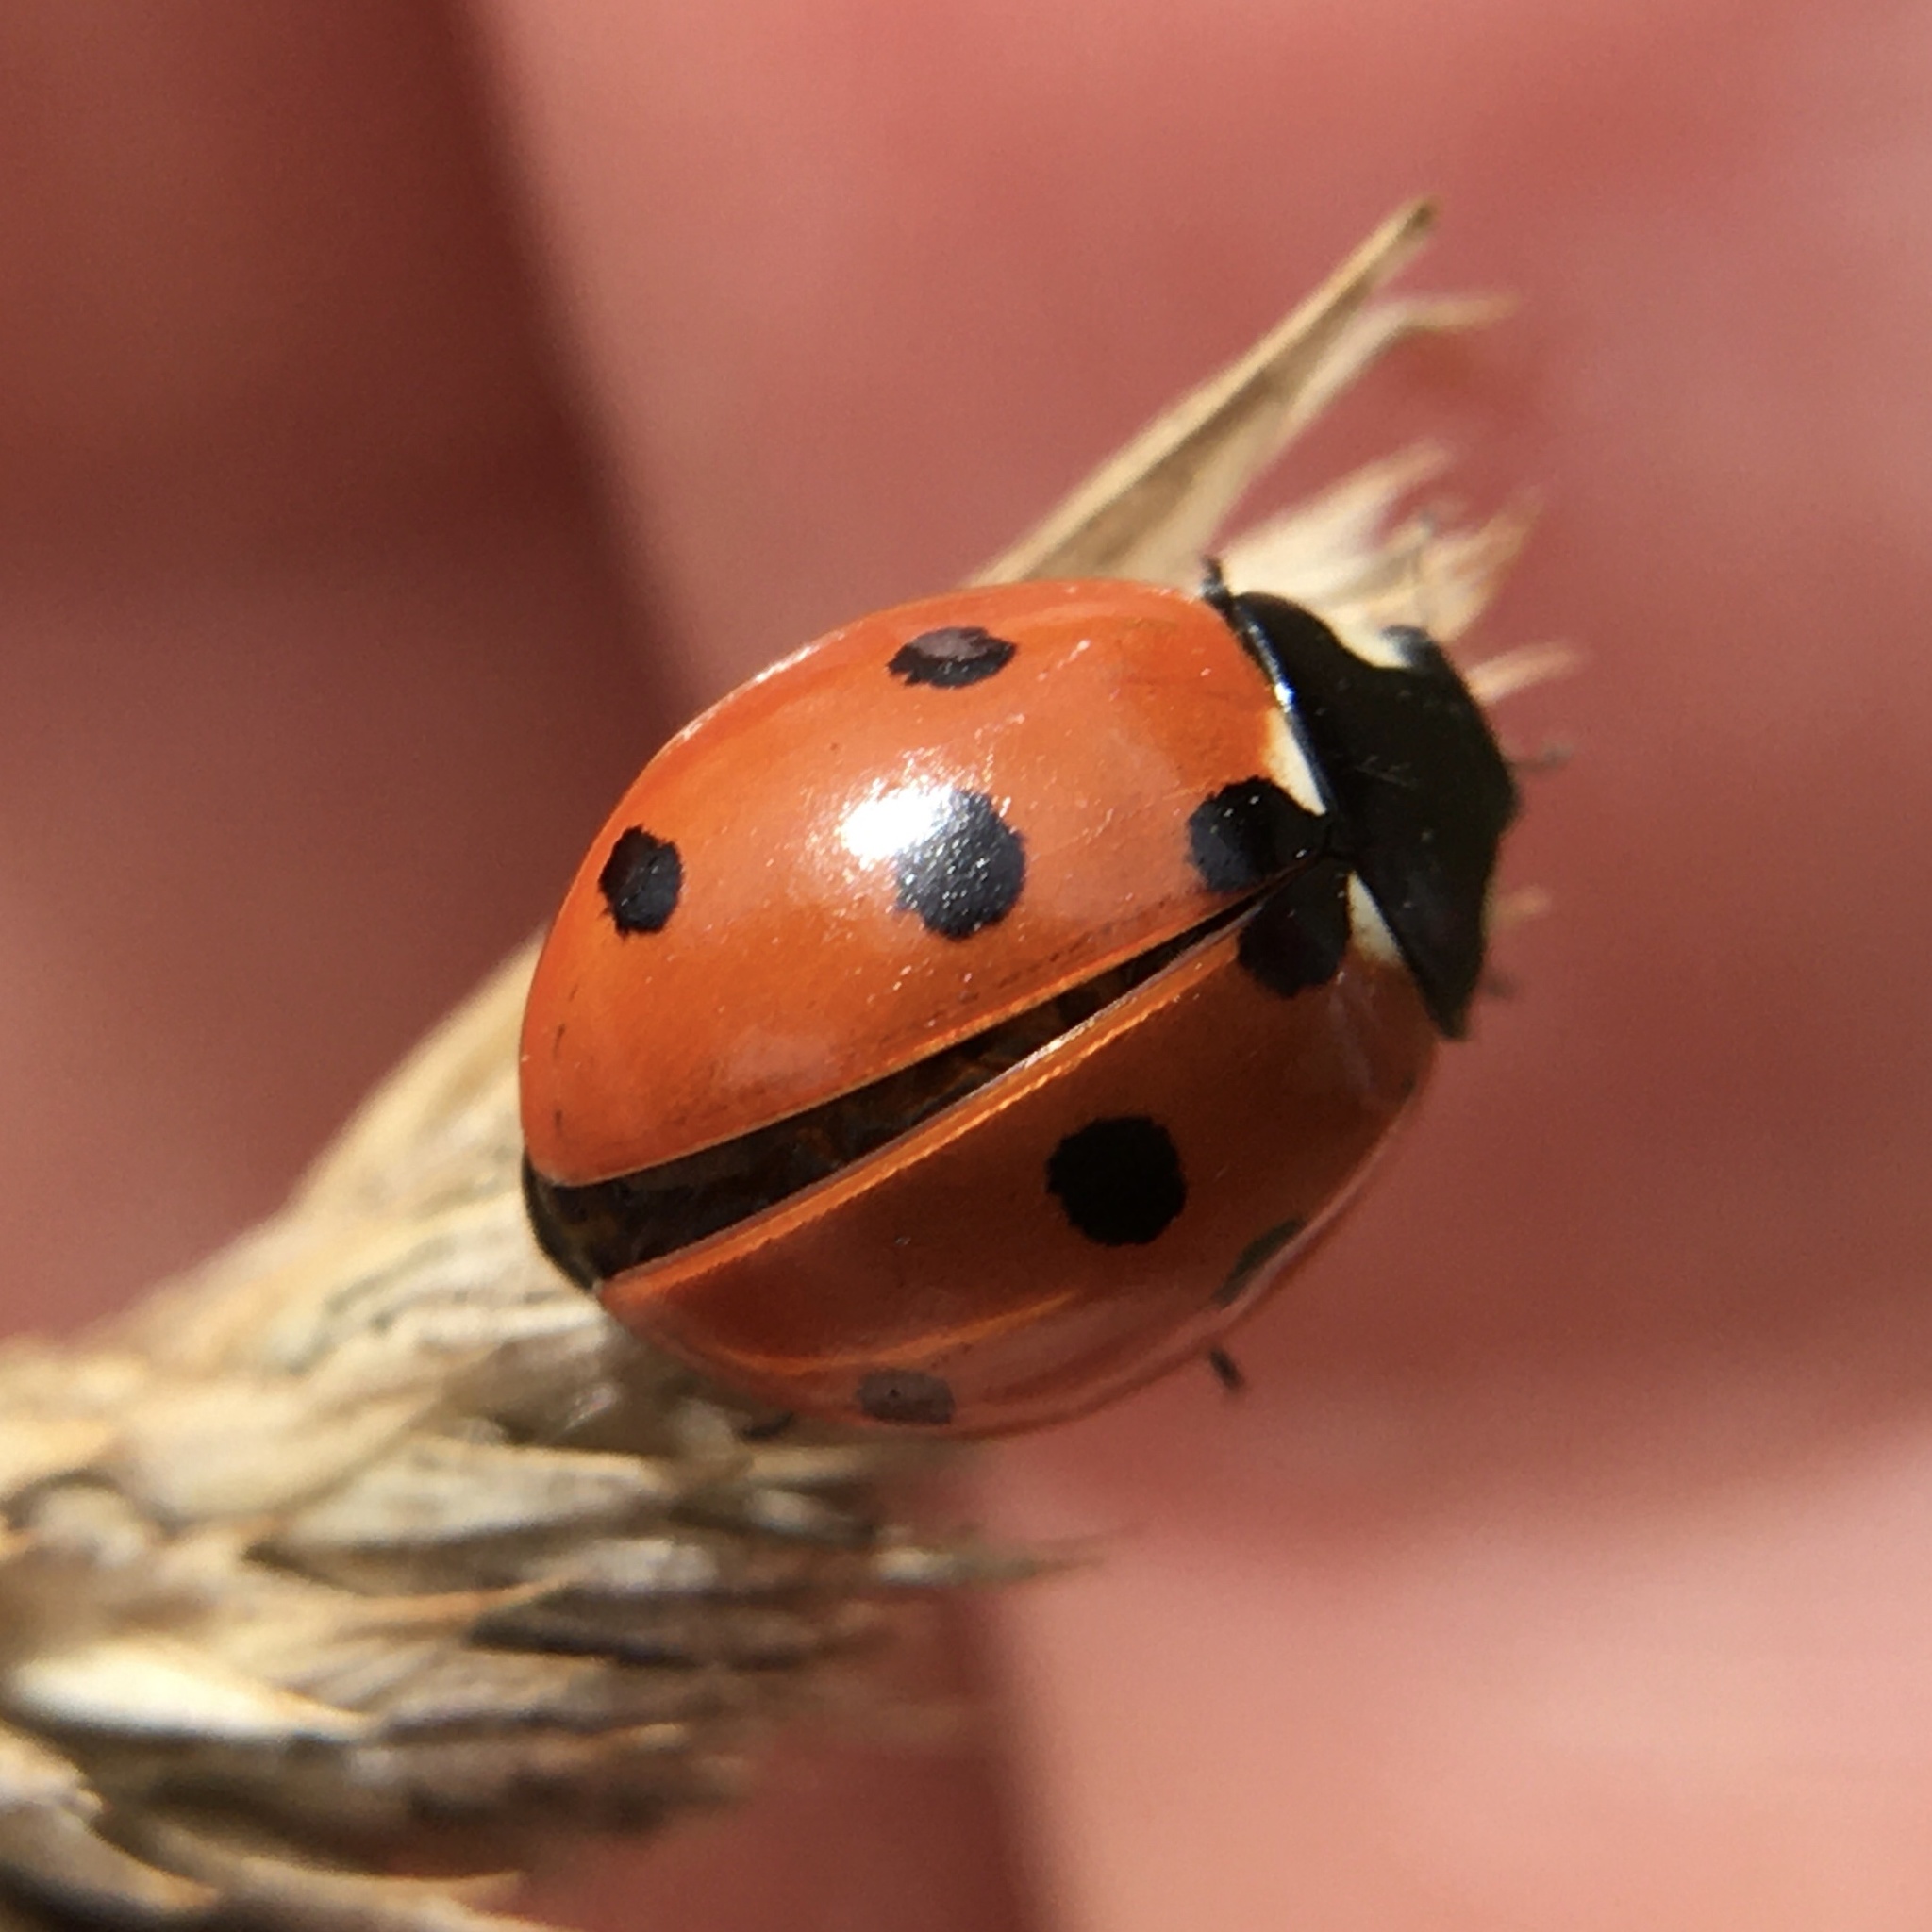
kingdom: Animalia
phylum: Arthropoda
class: Insecta
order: Coleoptera
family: Coccinellidae
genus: Coccinella
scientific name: Coccinella septempunctata
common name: Sevenspotted lady beetle
